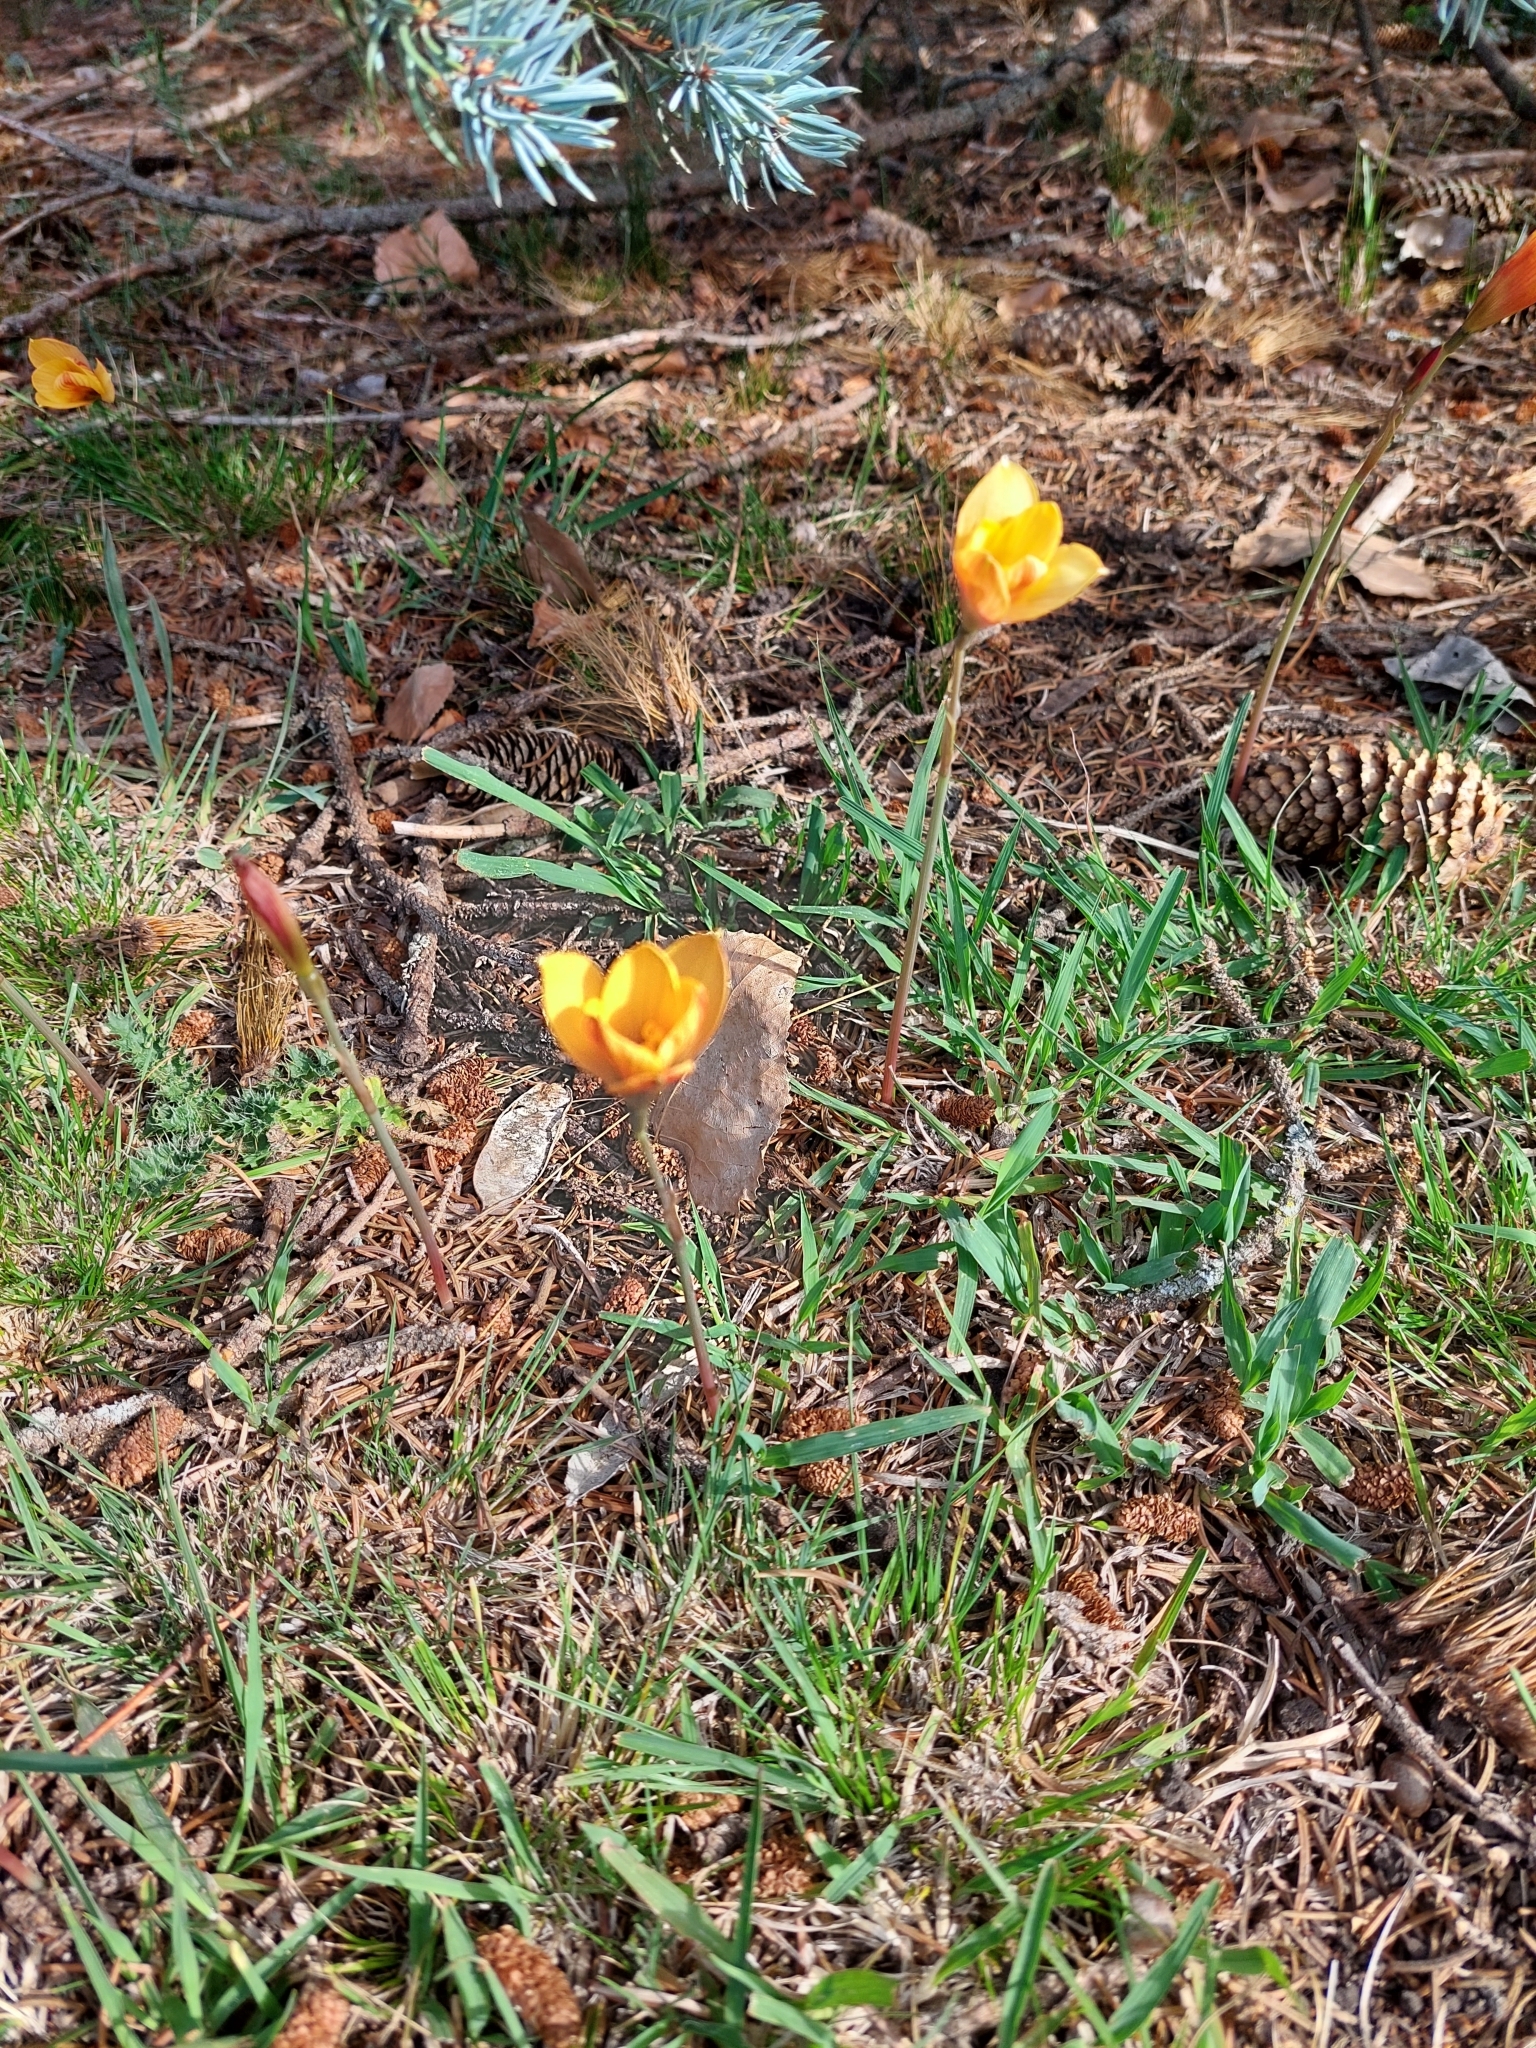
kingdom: Plantae
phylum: Tracheophyta
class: Liliopsida
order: Asparagales
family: Amaryllidaceae
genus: Zephyranthes
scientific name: Zephyranthes tubispatha
